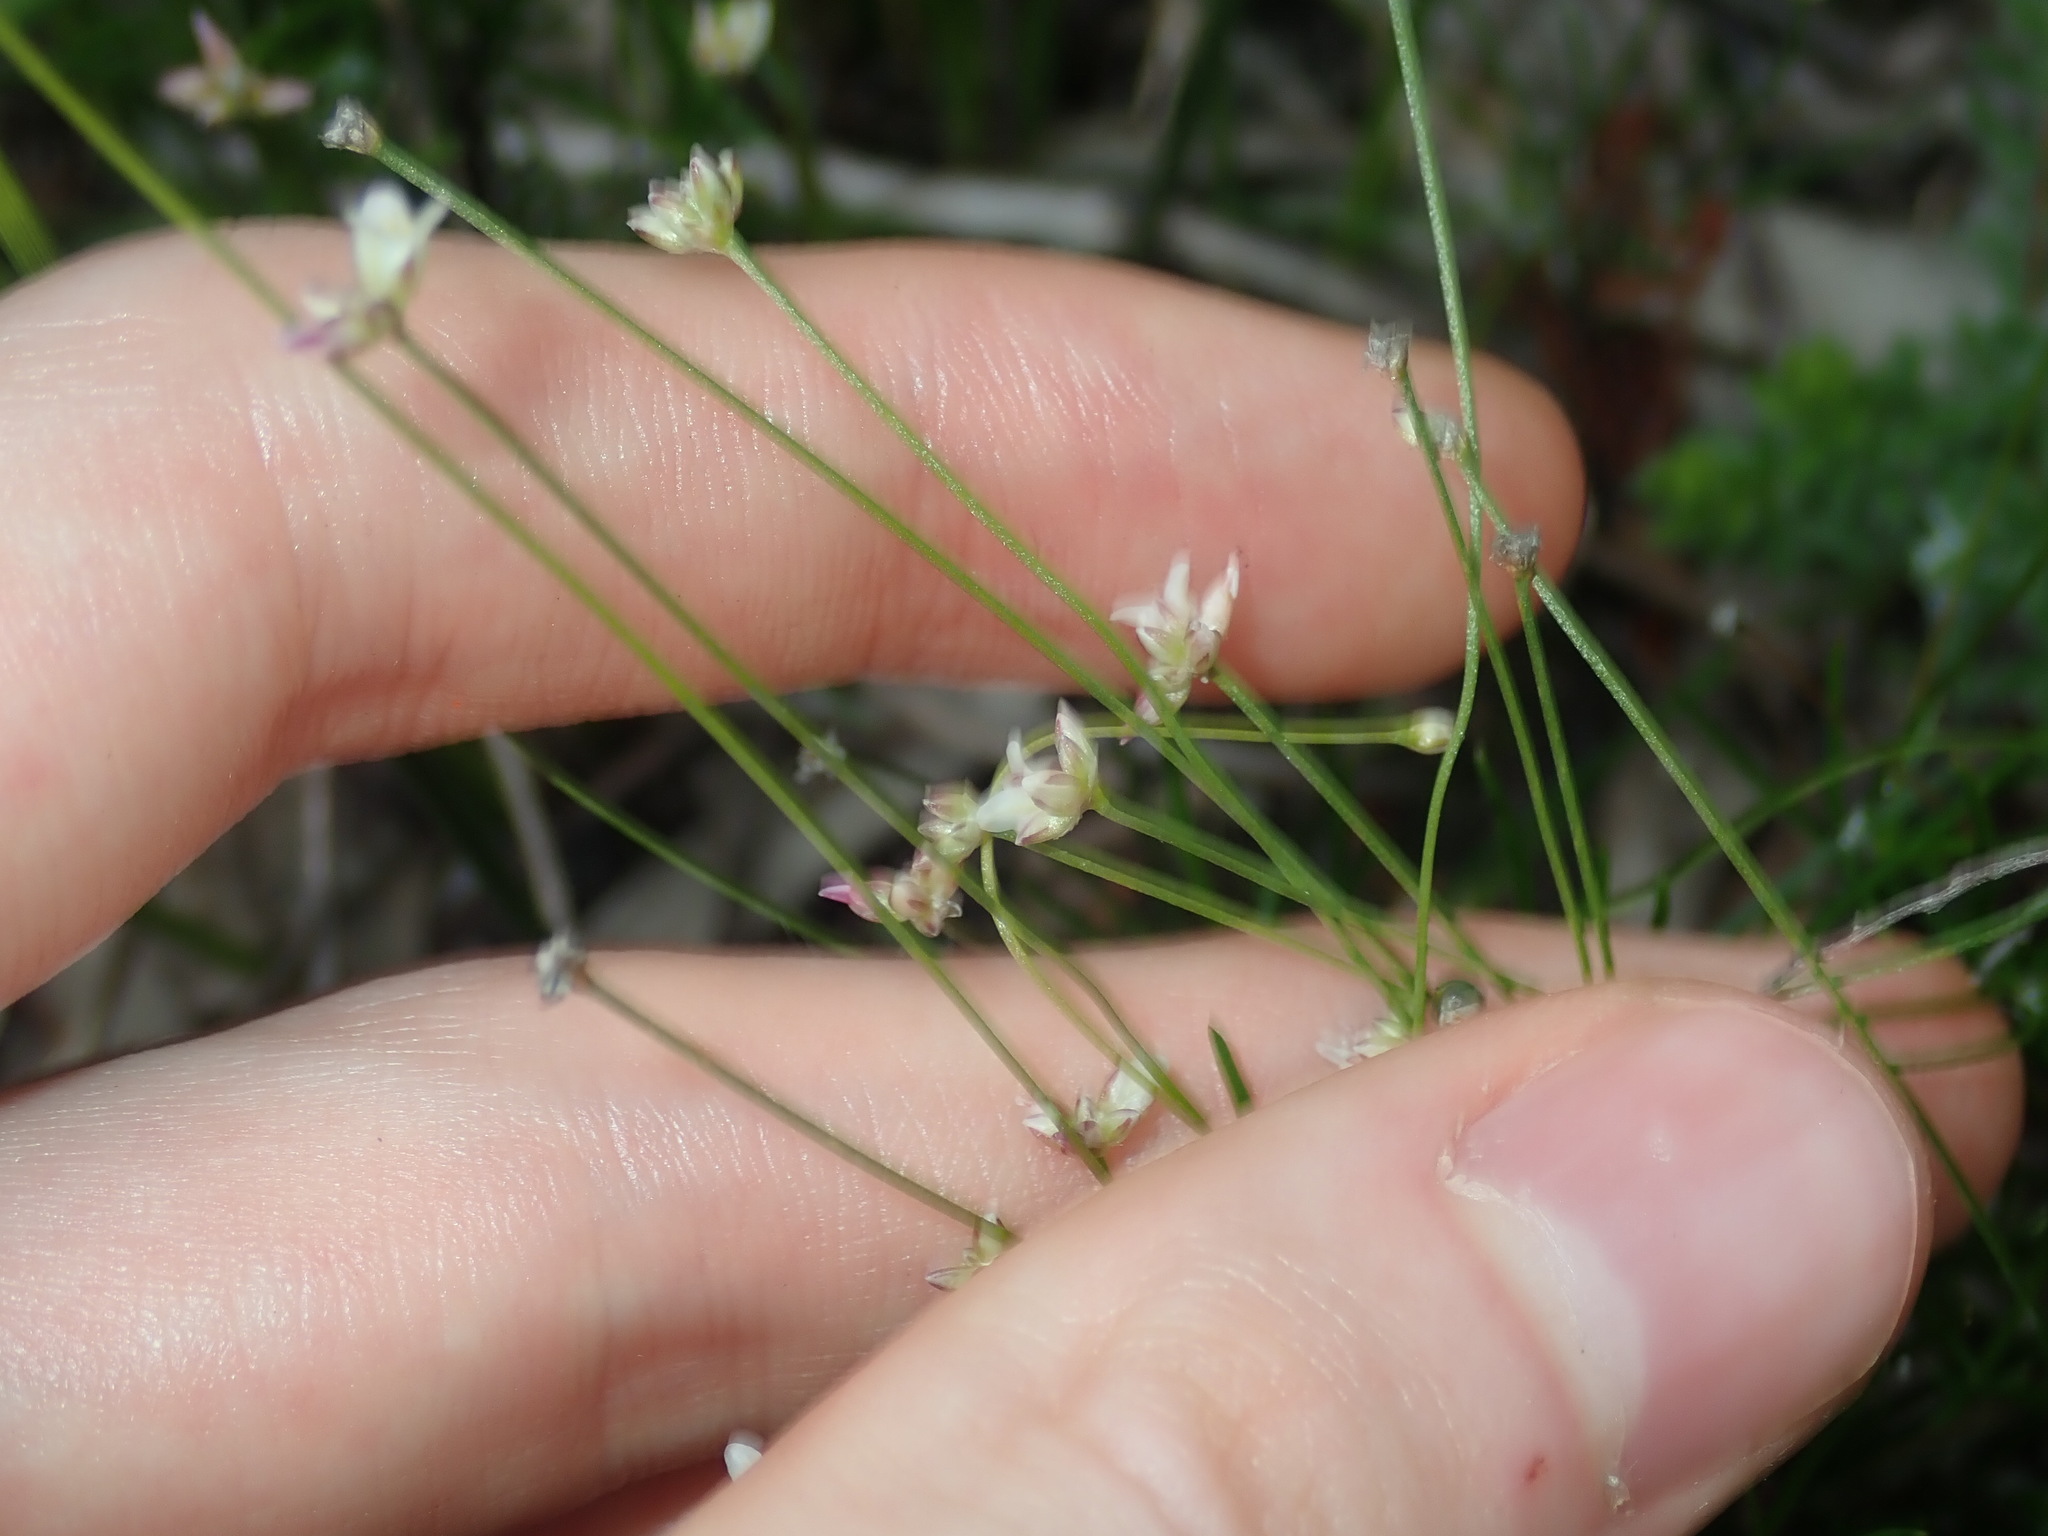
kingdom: Plantae
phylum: Tracheophyta
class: Liliopsida
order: Asparagales
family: Asparagaceae
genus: Laxmannia
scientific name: Laxmannia gracilis
